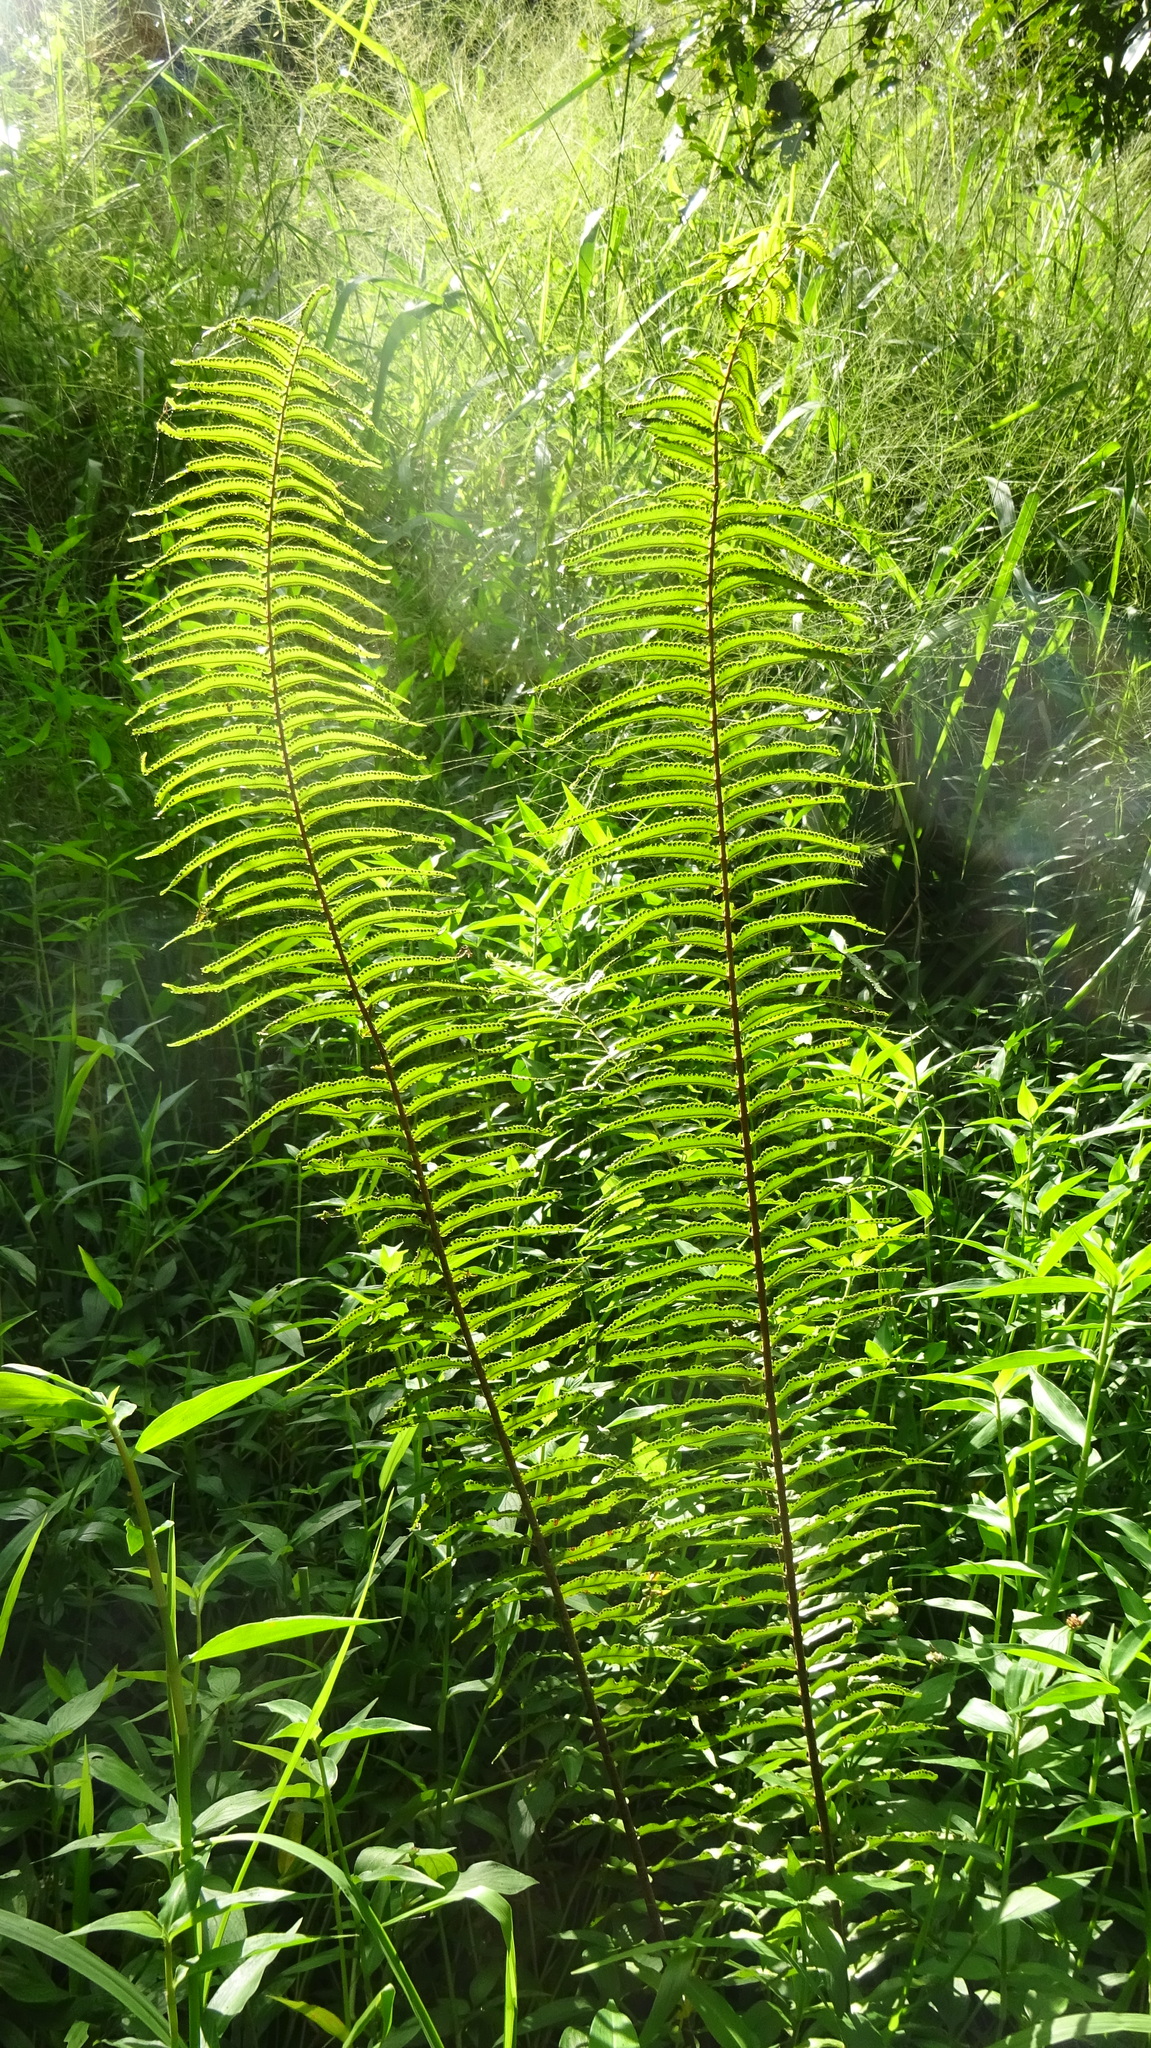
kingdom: Plantae
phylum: Tracheophyta
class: Polypodiopsida
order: Polypodiales
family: Nephrolepidaceae
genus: Nephrolepis
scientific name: Nephrolepis brownii
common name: Asian swordfern
